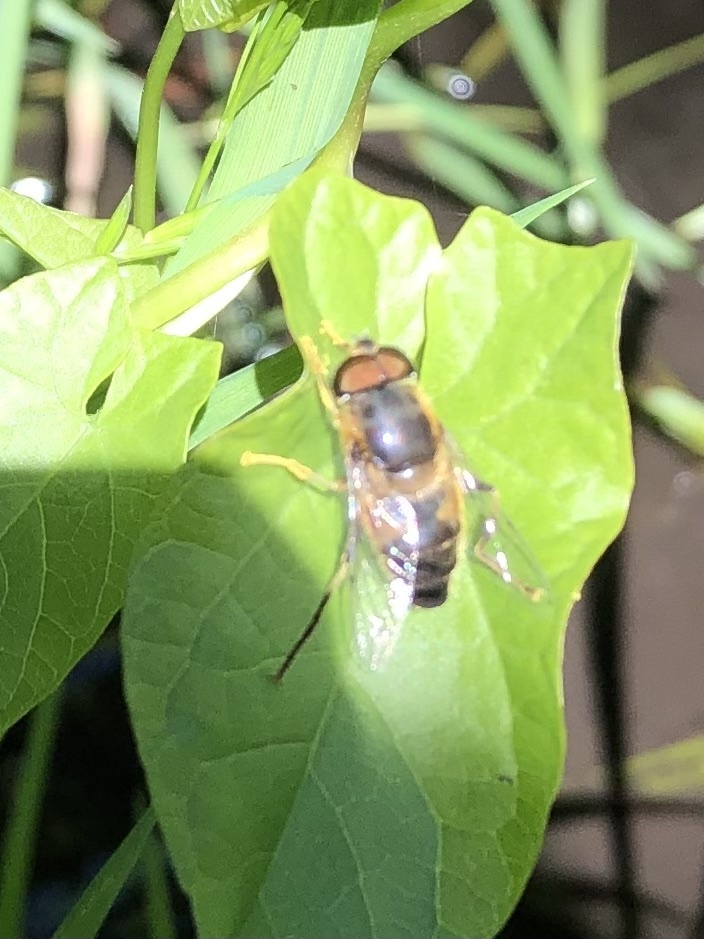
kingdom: Animalia
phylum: Arthropoda
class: Insecta
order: Diptera
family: Syrphidae
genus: Eristalis
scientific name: Eristalis pertinax
